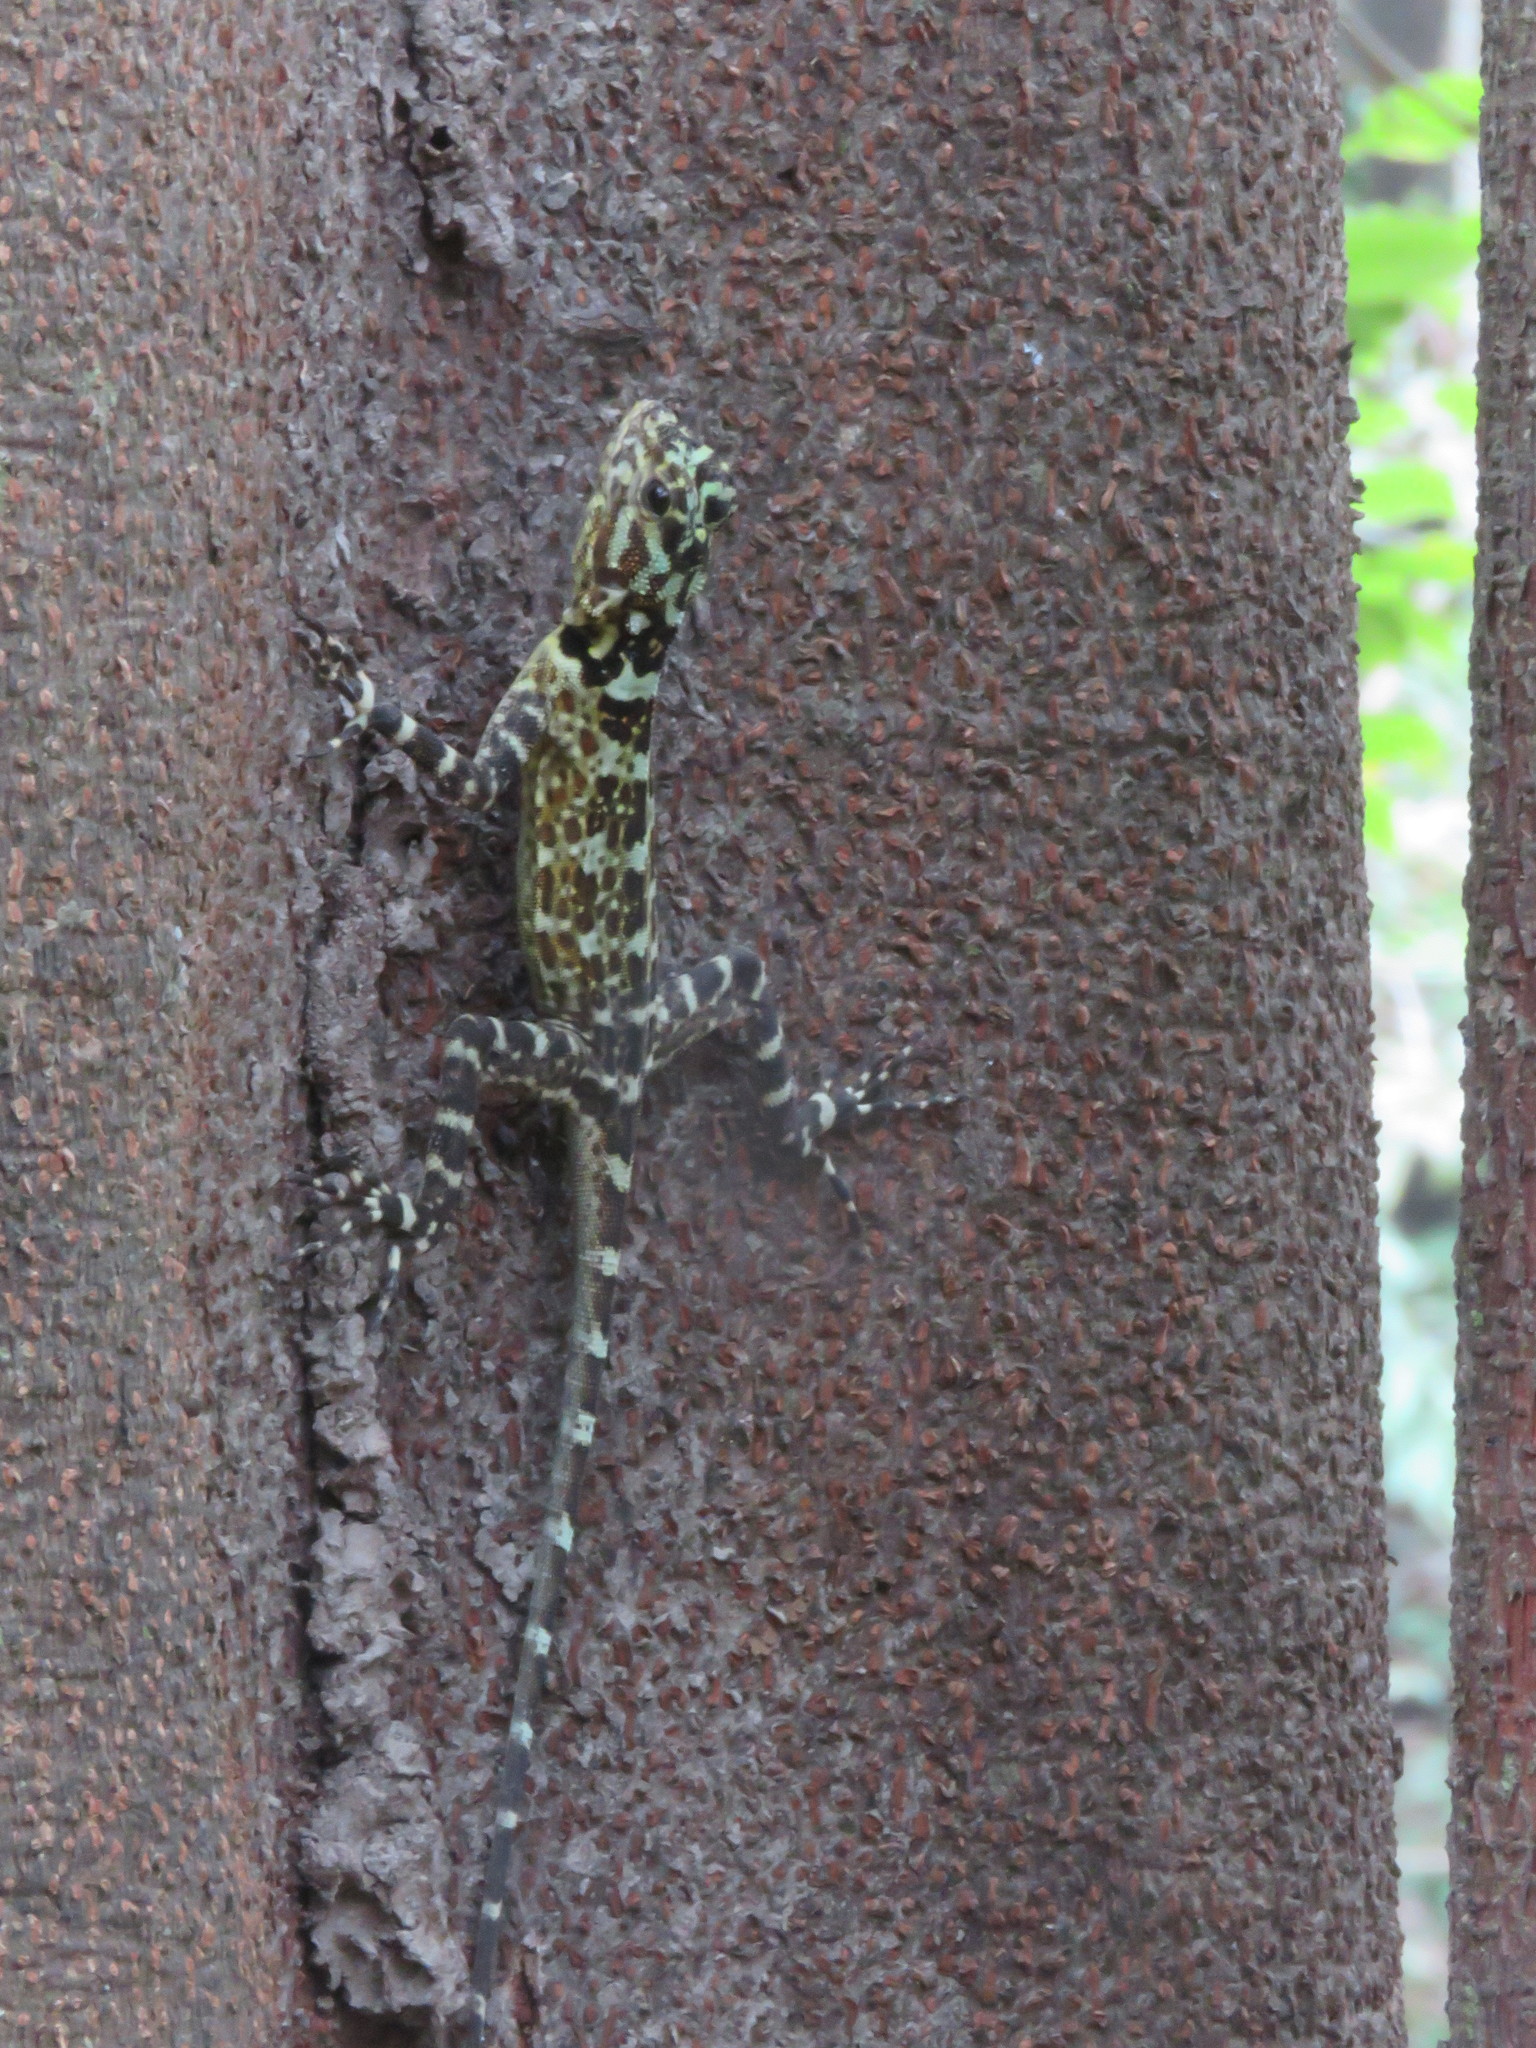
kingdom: Animalia
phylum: Chordata
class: Squamata
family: Tropiduridae
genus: Plica
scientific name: Plica plica
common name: Tree runner
